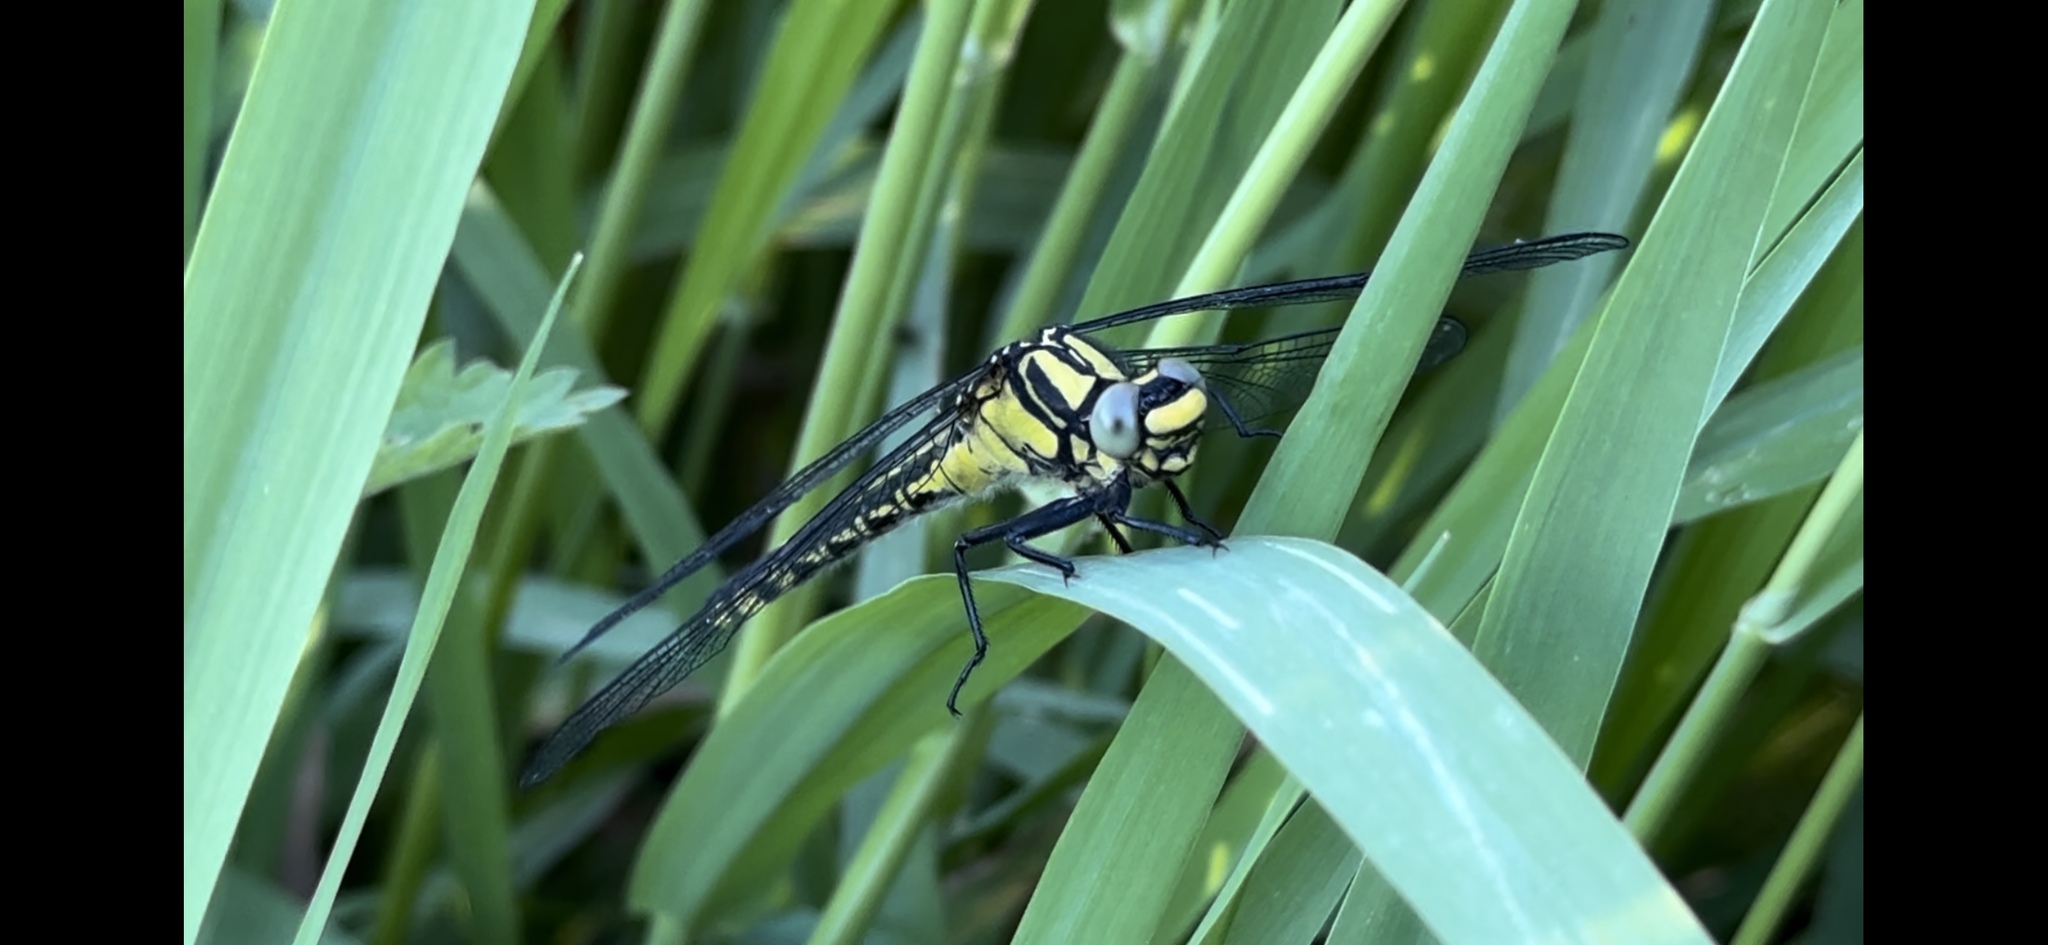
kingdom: Animalia
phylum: Arthropoda
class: Insecta
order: Odonata
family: Gomphidae
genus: Gomphus
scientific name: Gomphus vulgatissimus
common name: Club-tailed dragonfly
